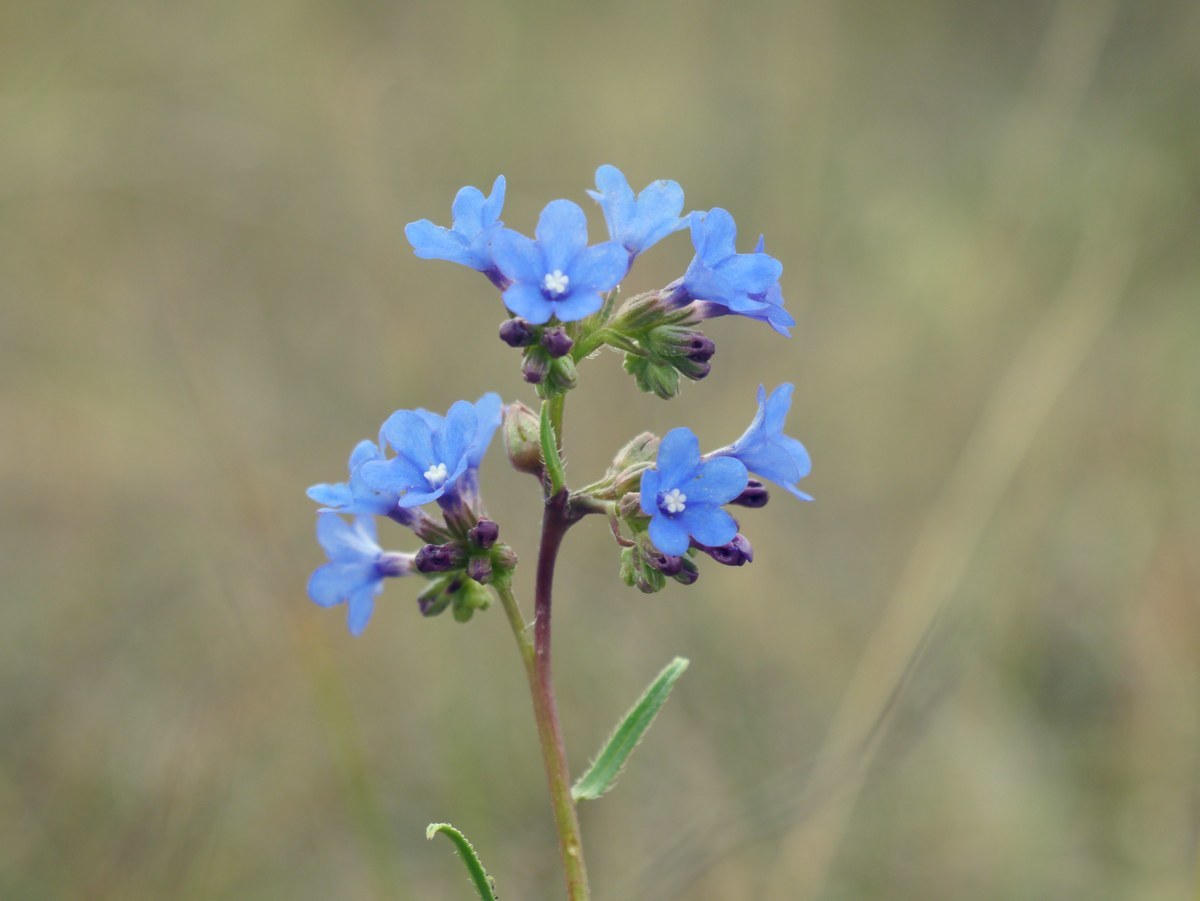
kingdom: Plantae
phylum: Tracheophyta
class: Magnoliopsida
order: Boraginales
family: Boraginaceae
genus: Anchusa
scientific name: Anchusa gmelinii
